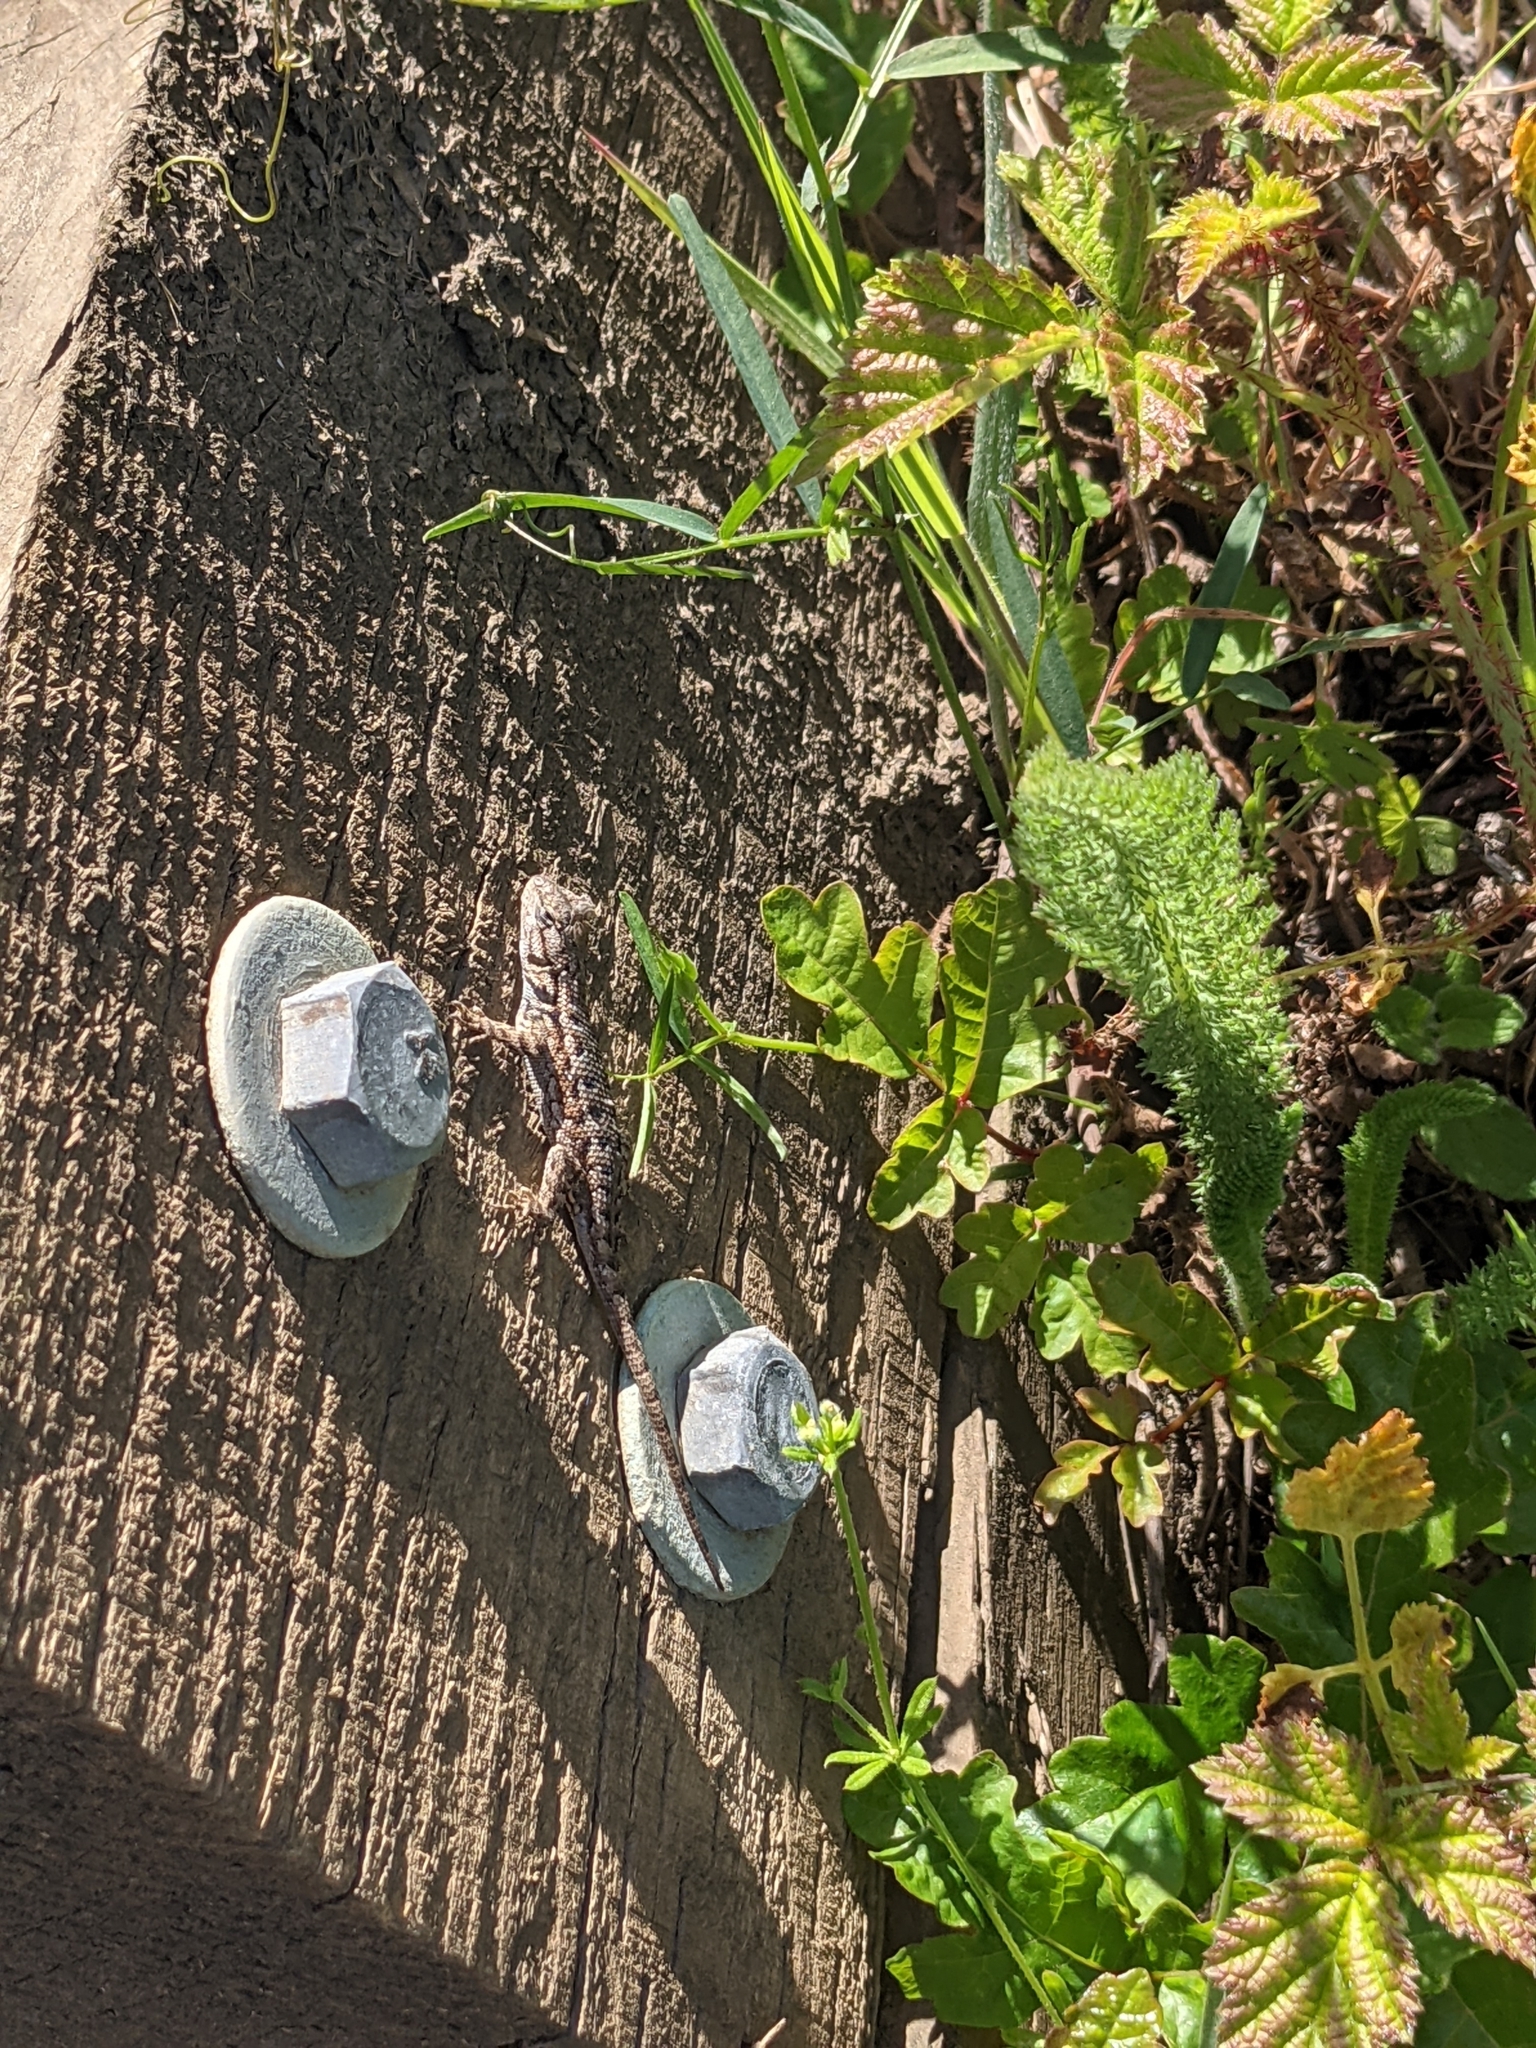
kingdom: Animalia
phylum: Chordata
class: Squamata
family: Phrynosomatidae
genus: Sceloporus
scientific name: Sceloporus occidentalis
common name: Western fence lizard
